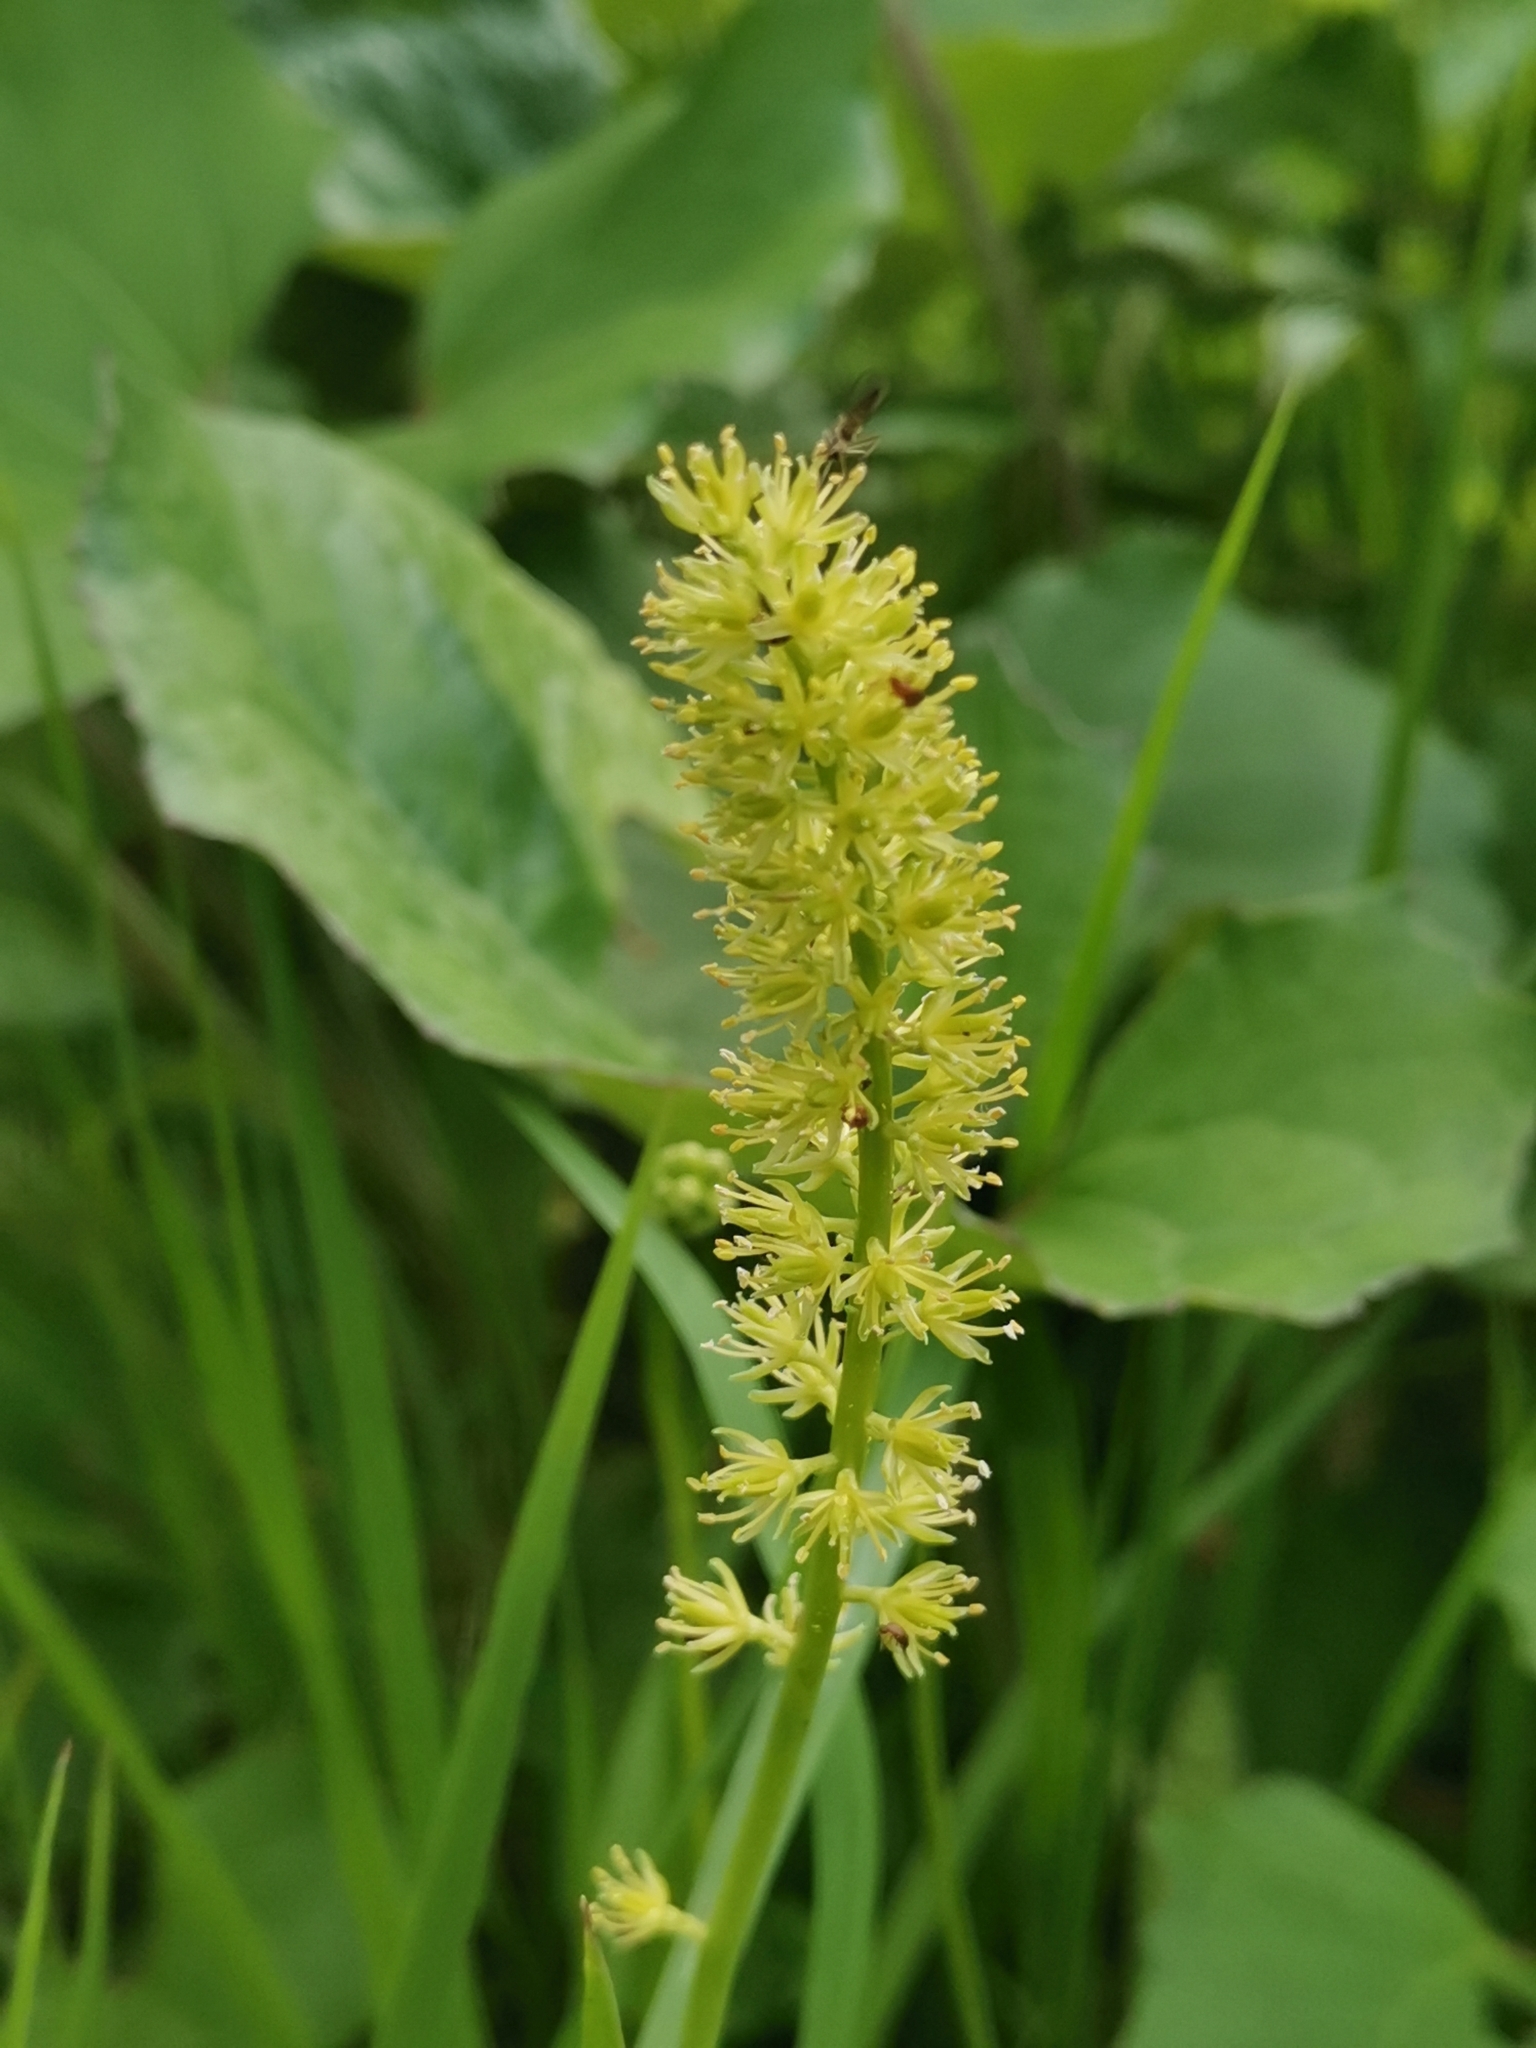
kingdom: Plantae
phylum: Tracheophyta
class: Liliopsida
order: Alismatales
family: Tofieldiaceae
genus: Tofieldia
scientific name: Tofieldia calyculata
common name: German-asphodel
